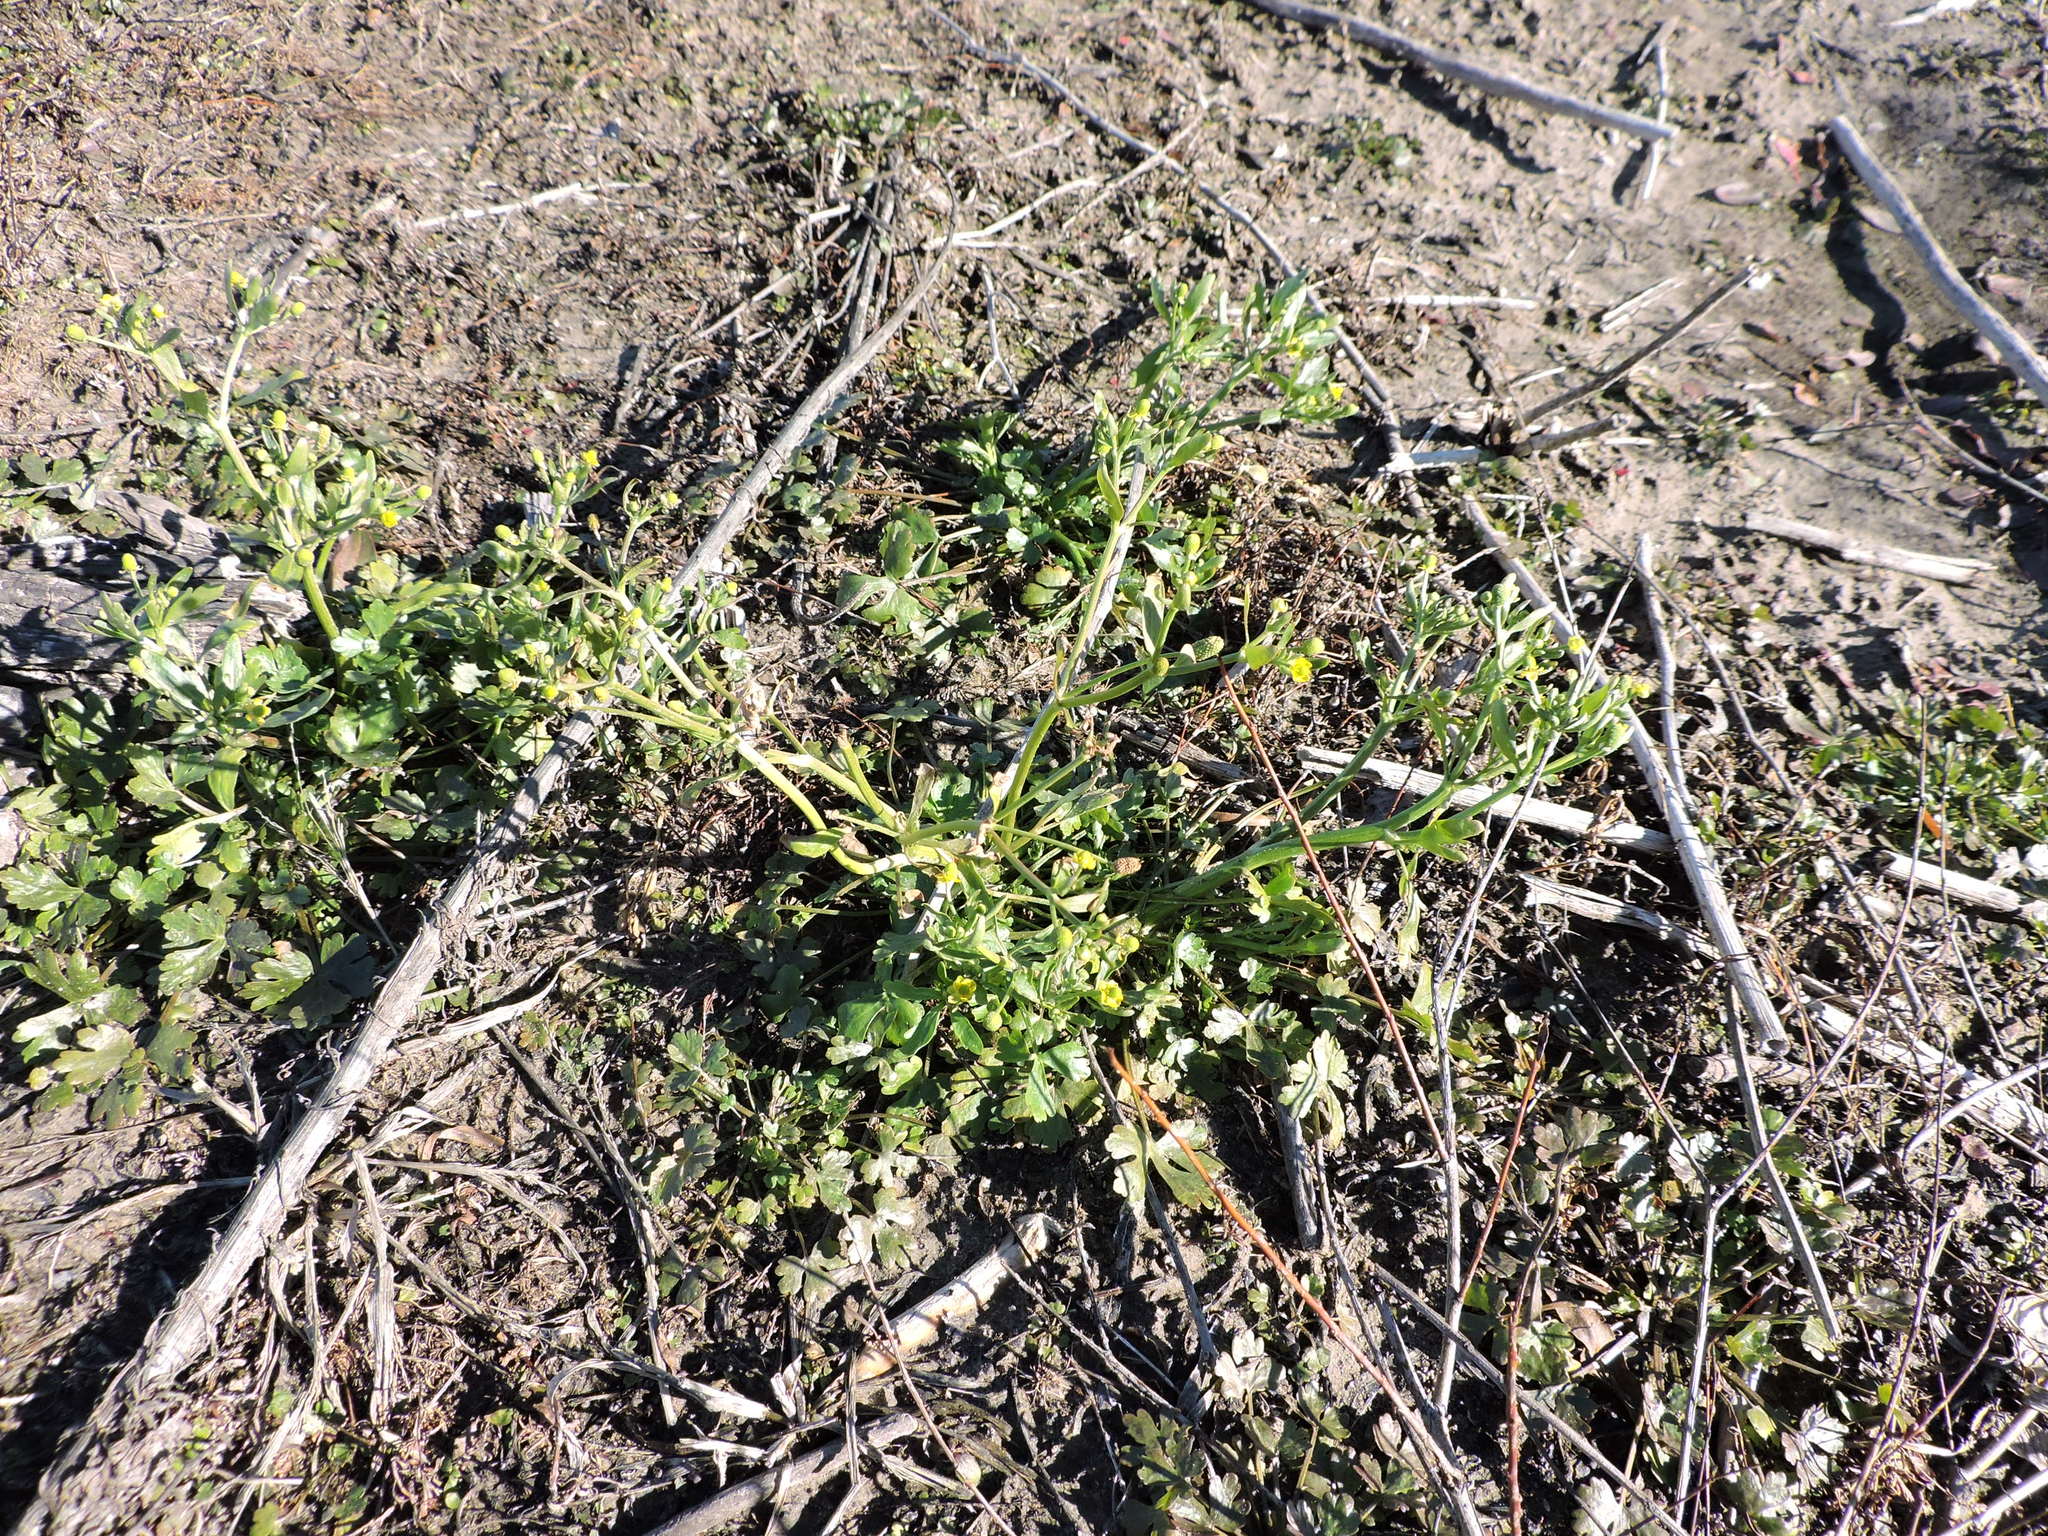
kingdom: Plantae
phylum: Tracheophyta
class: Magnoliopsida
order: Ranunculales
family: Ranunculaceae
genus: Ranunculus
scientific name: Ranunculus sceleratus
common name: Celery-leaved buttercup
